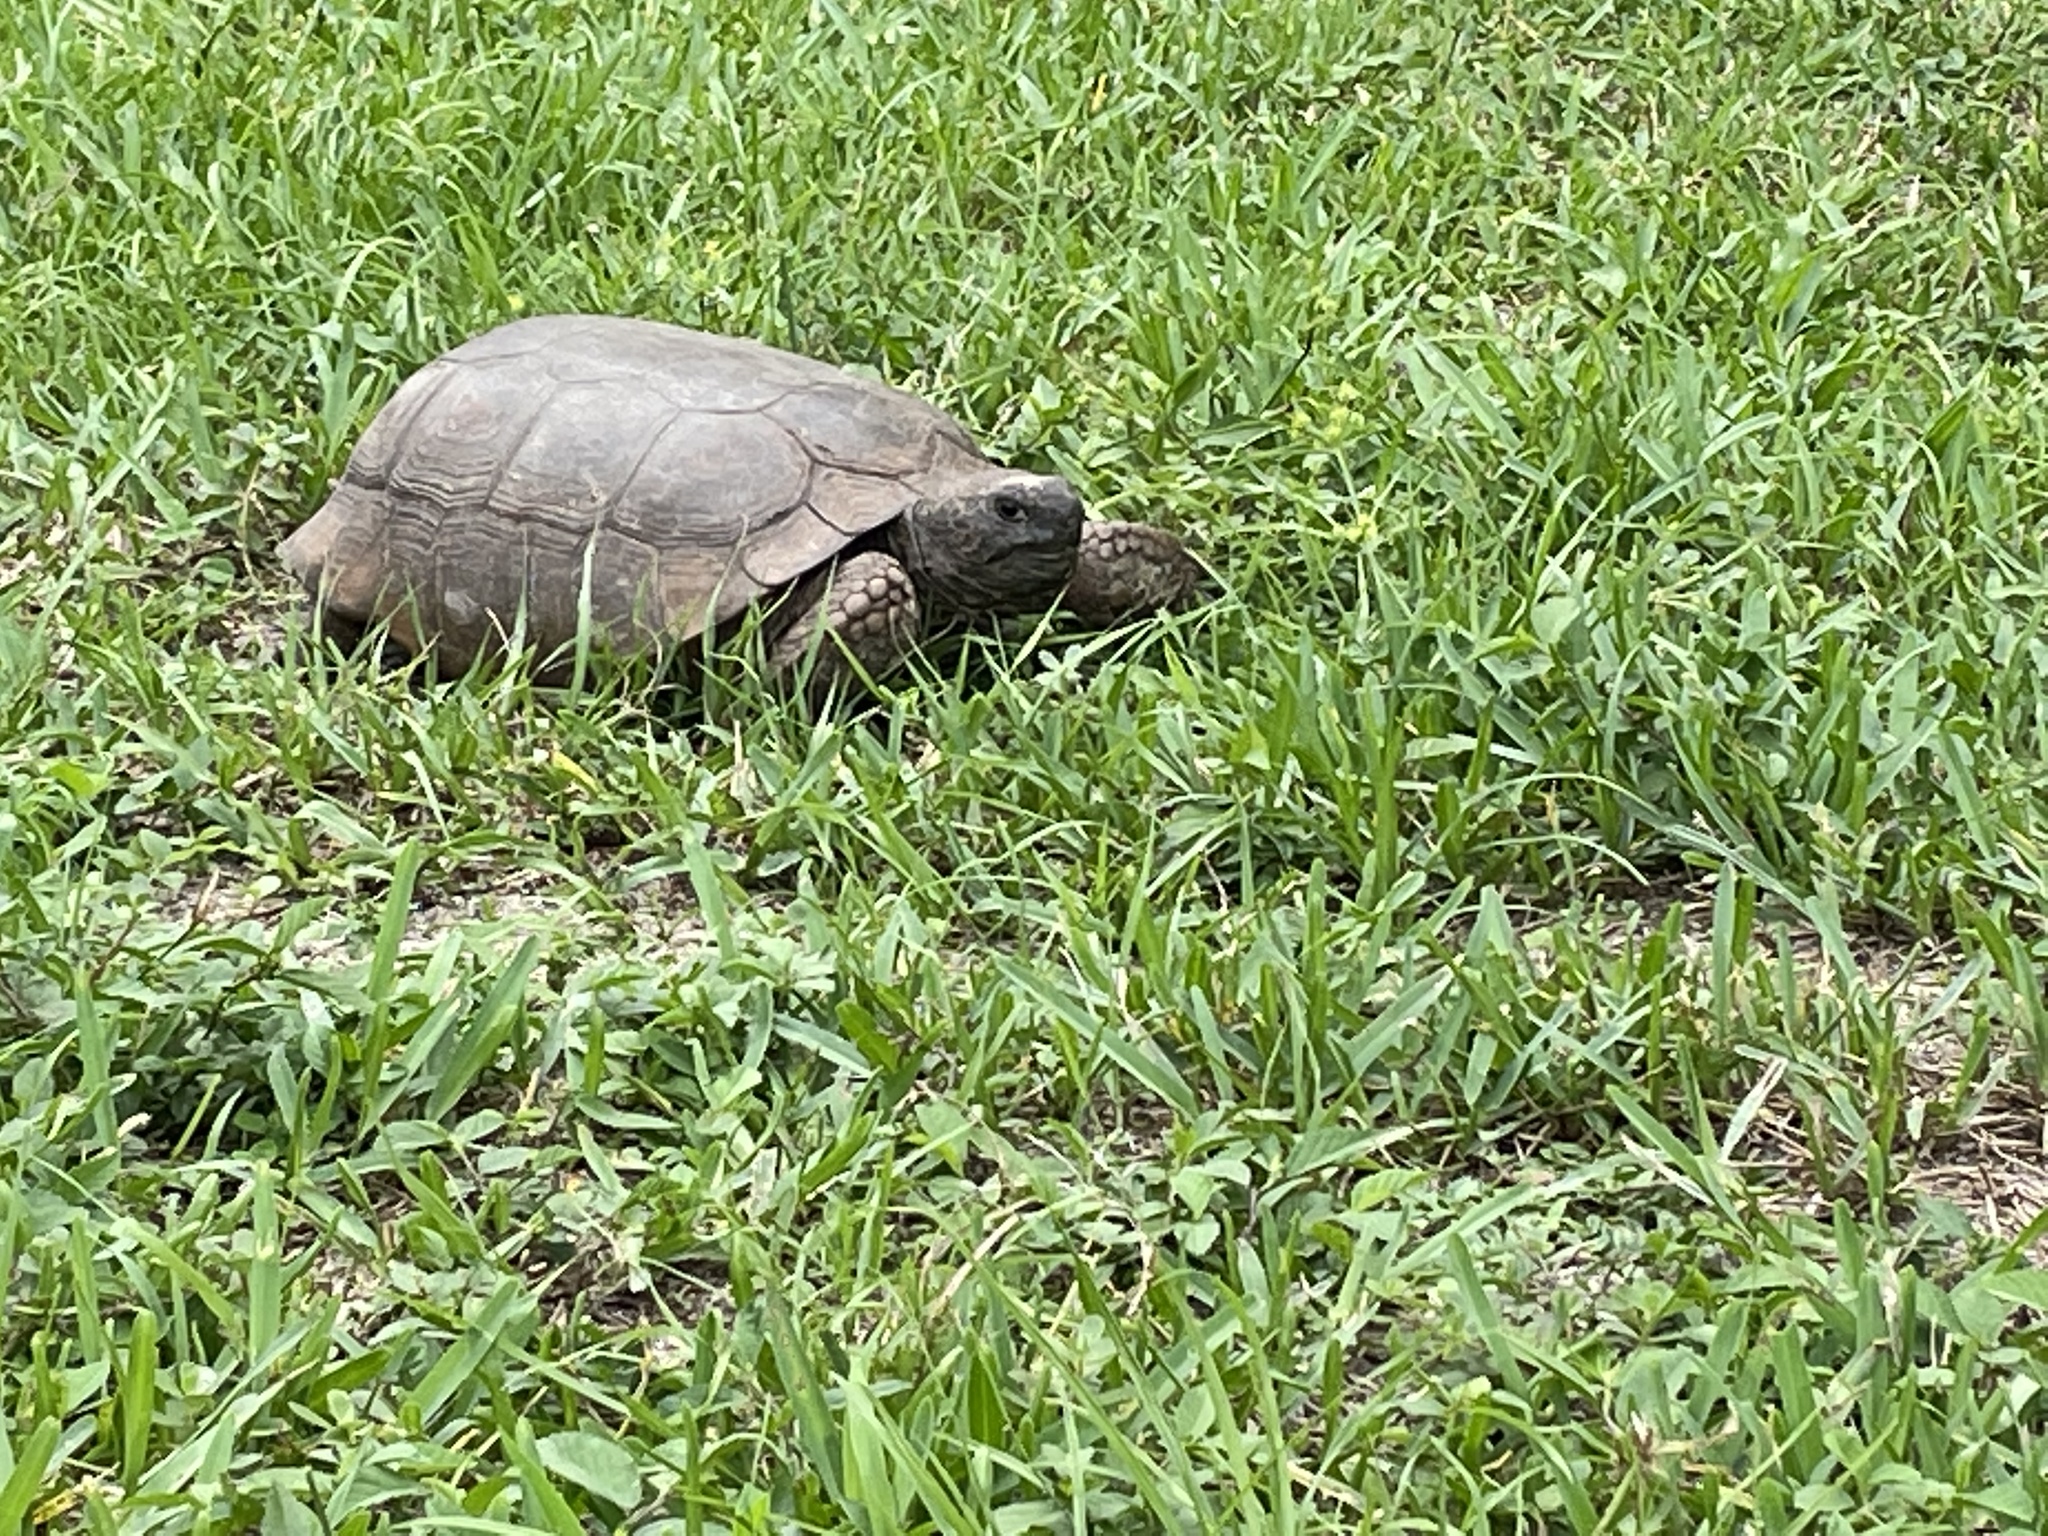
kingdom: Animalia
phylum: Chordata
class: Testudines
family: Testudinidae
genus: Gopherus
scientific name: Gopherus polyphemus
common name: Florida gopher tortoise
